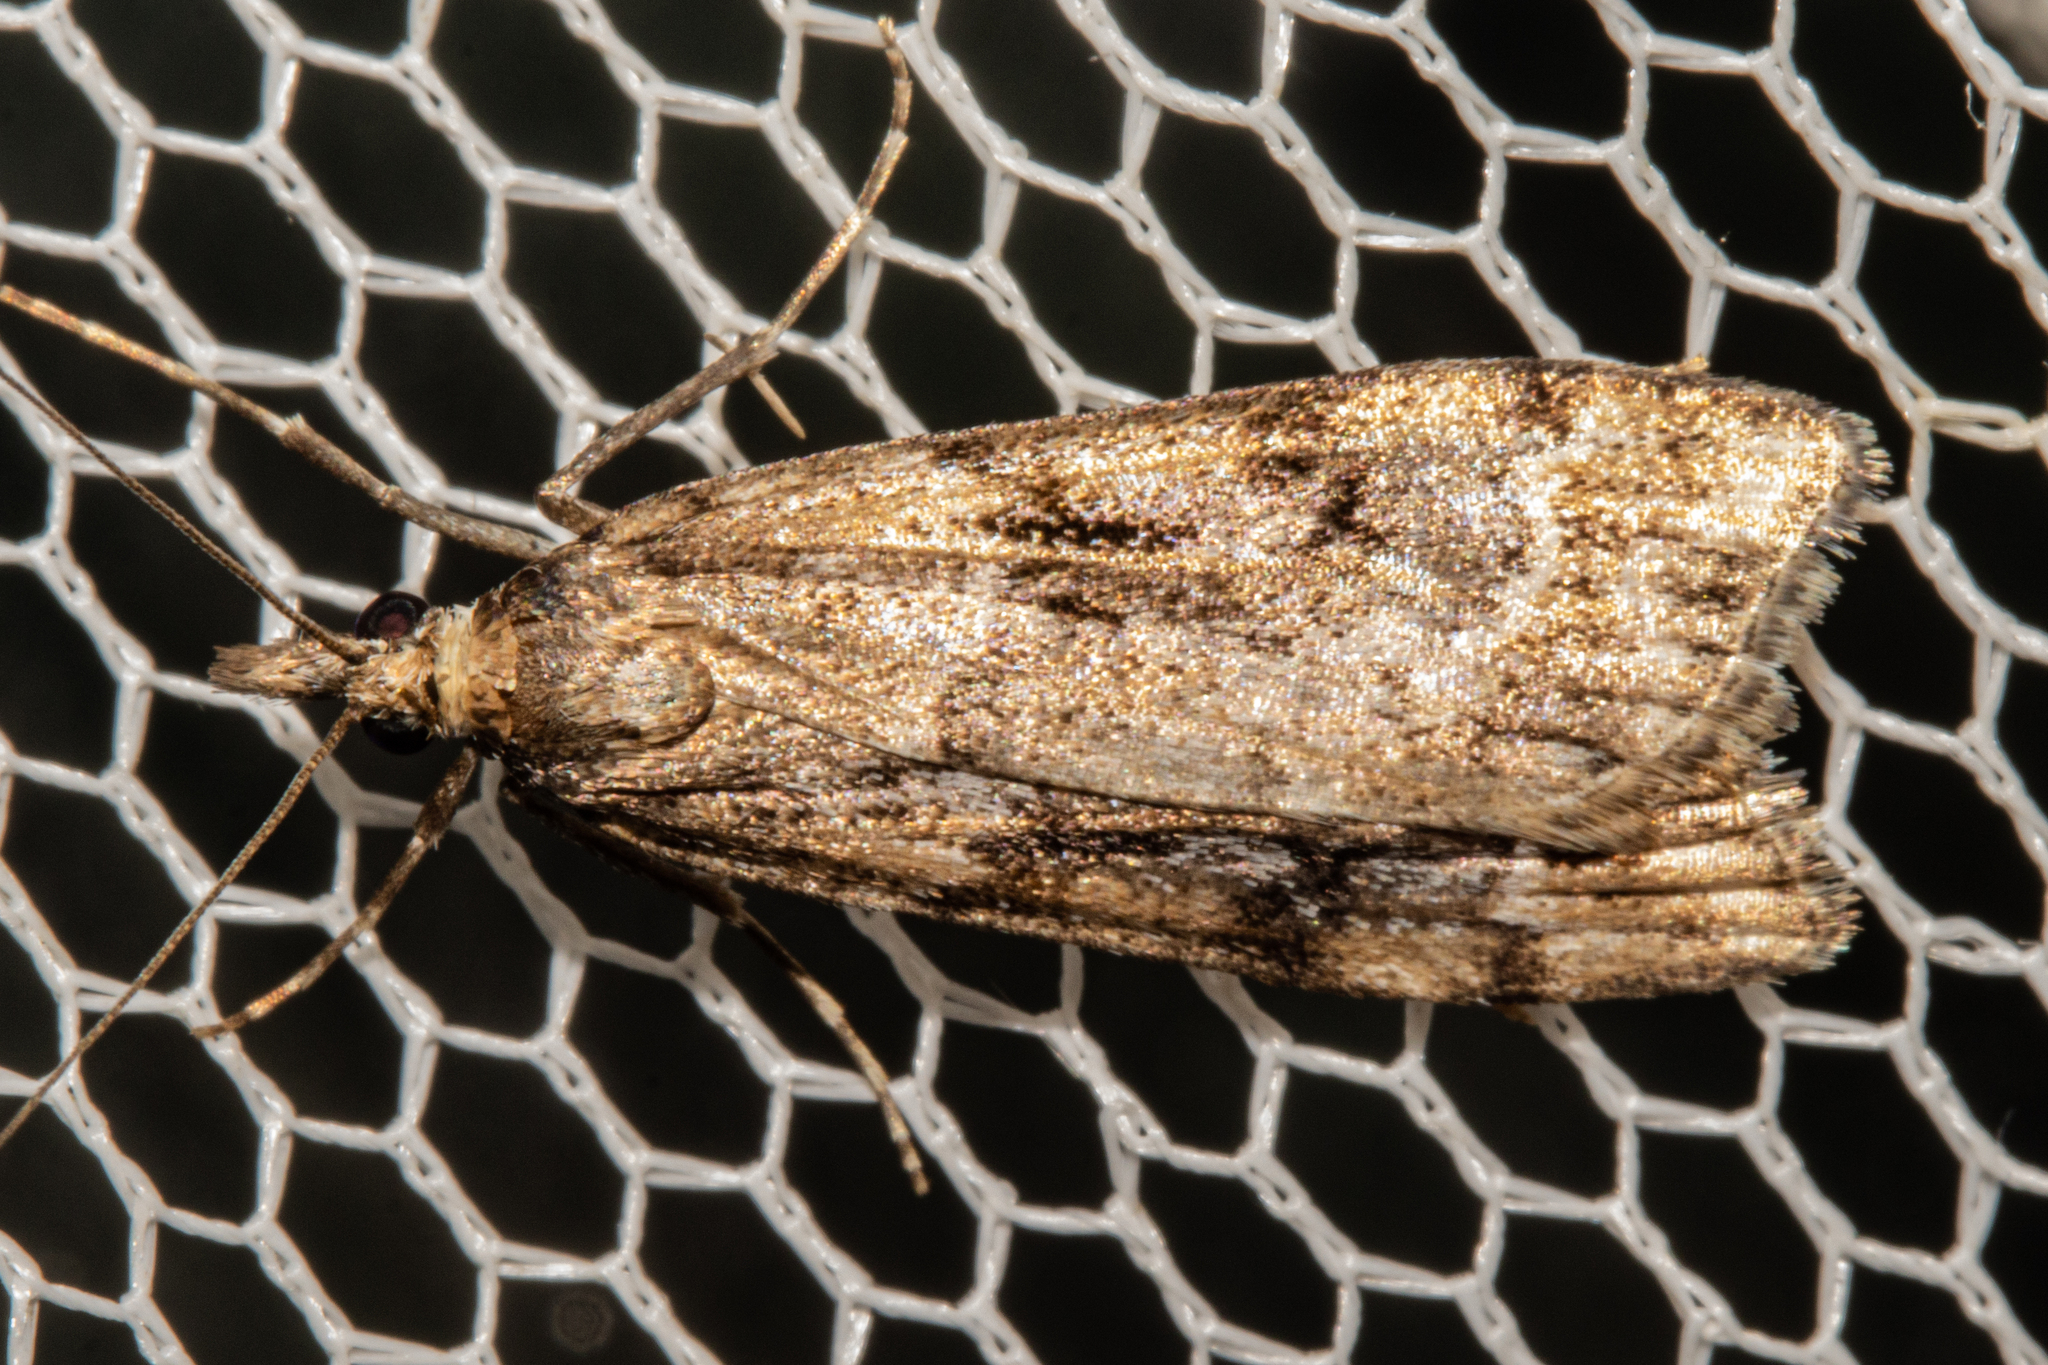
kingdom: Animalia
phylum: Arthropoda
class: Insecta
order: Lepidoptera
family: Crambidae
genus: Eudonia
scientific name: Eudonia chalara
